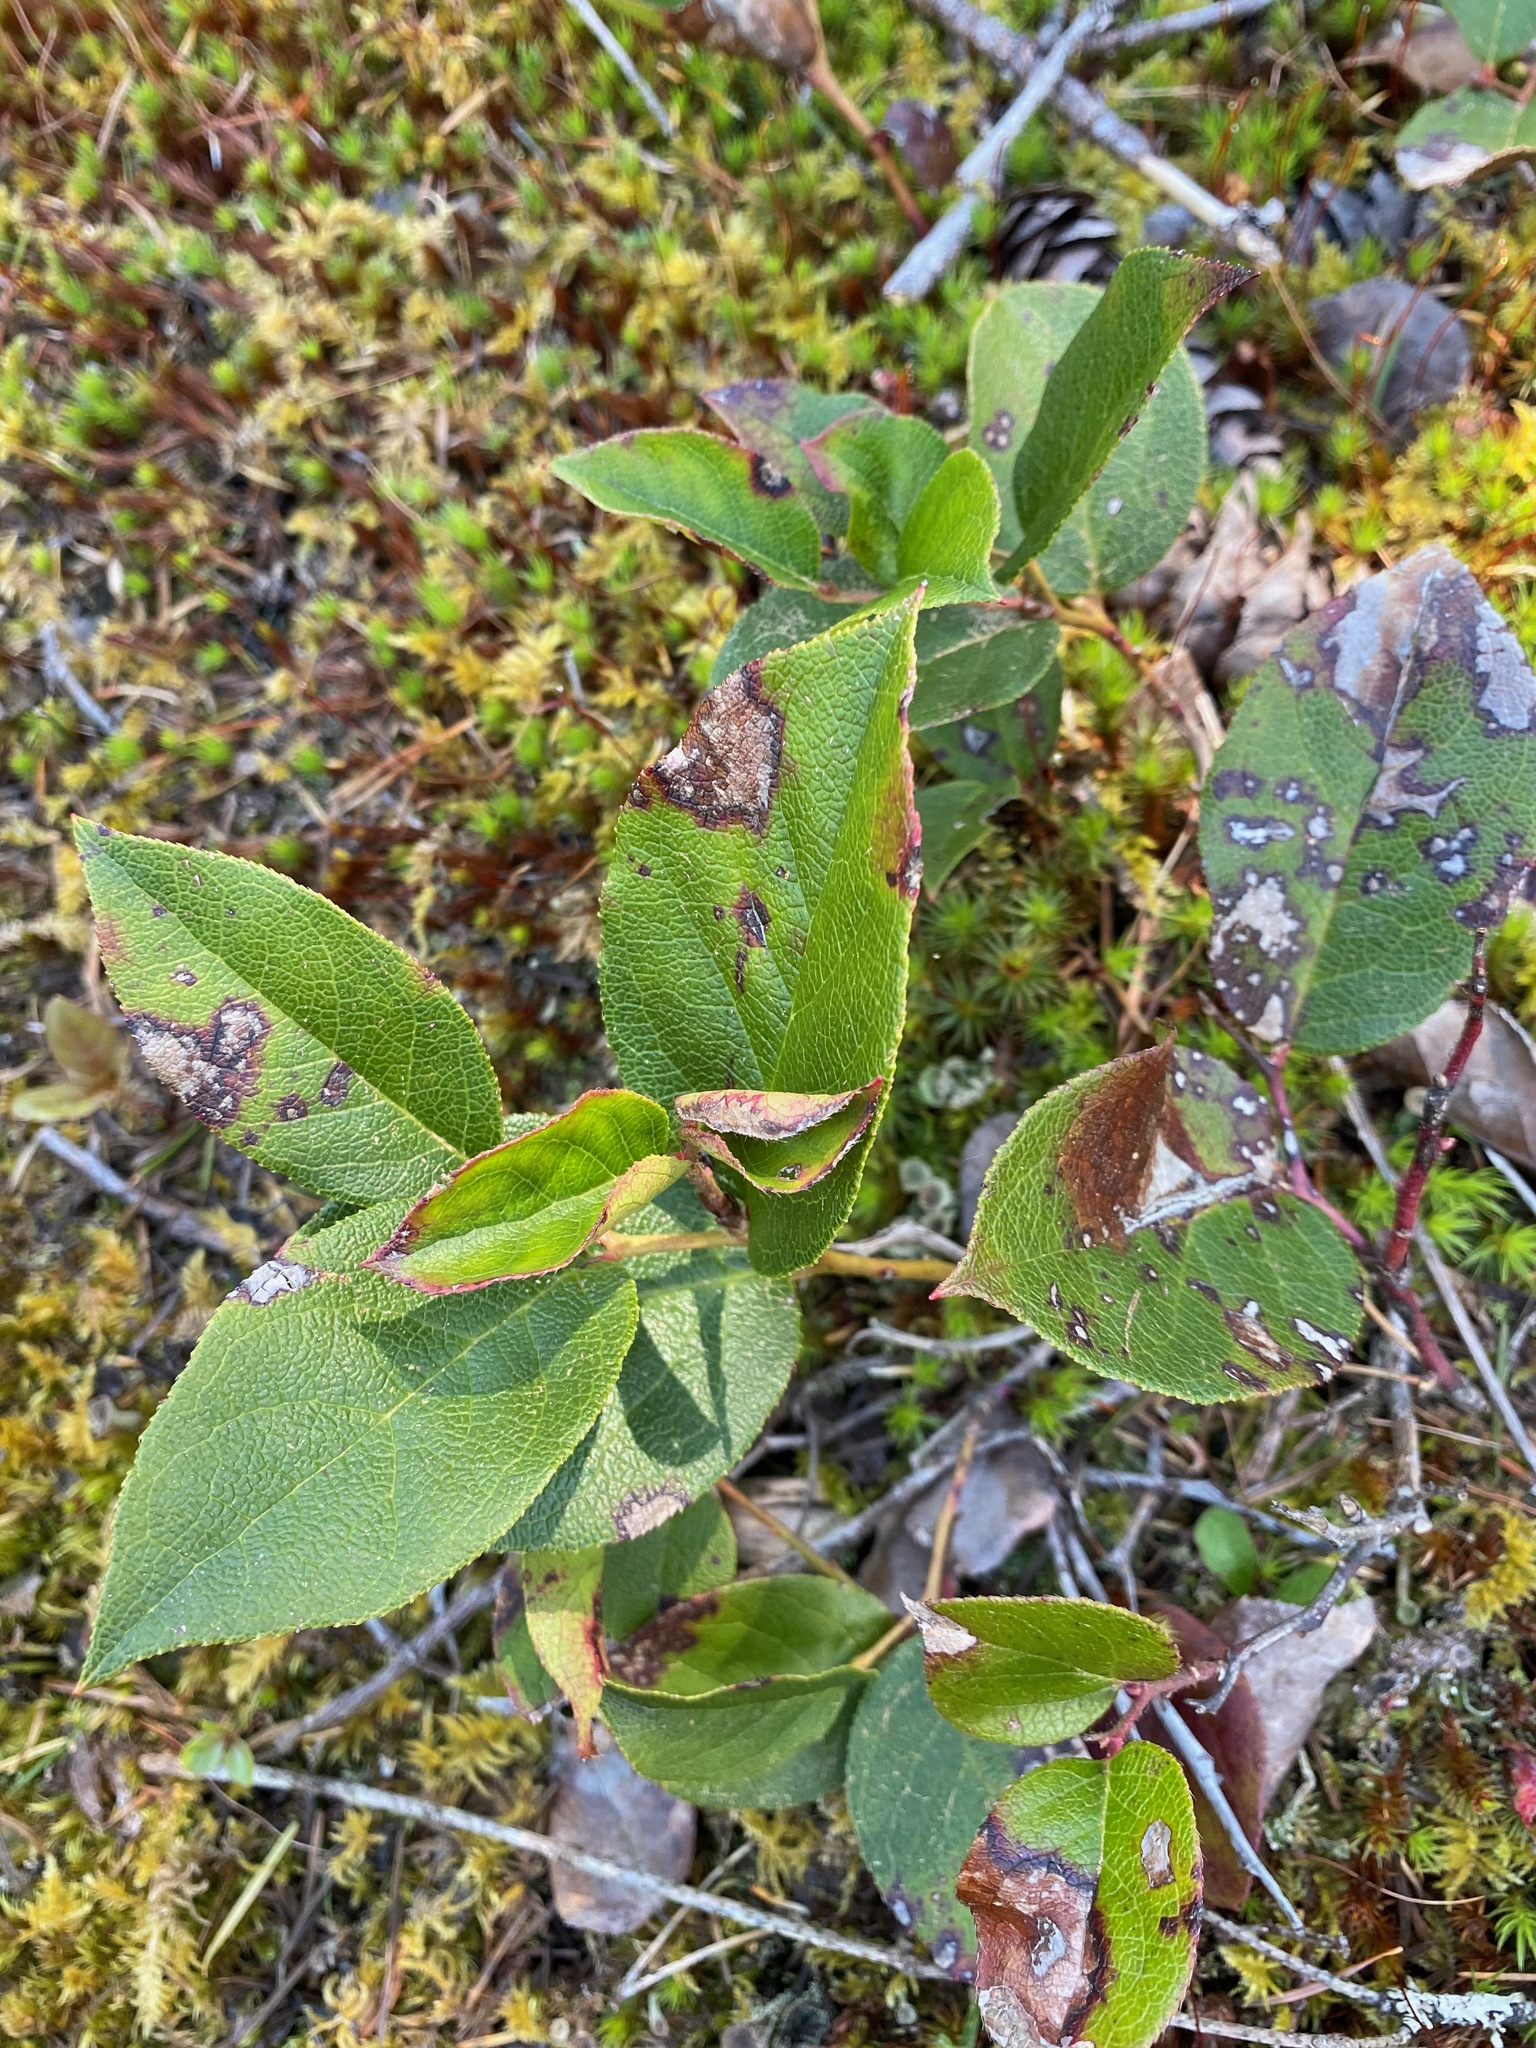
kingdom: Plantae
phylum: Tracheophyta
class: Magnoliopsida
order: Ericales
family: Ericaceae
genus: Gaultheria
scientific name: Gaultheria shallon
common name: Shallon
